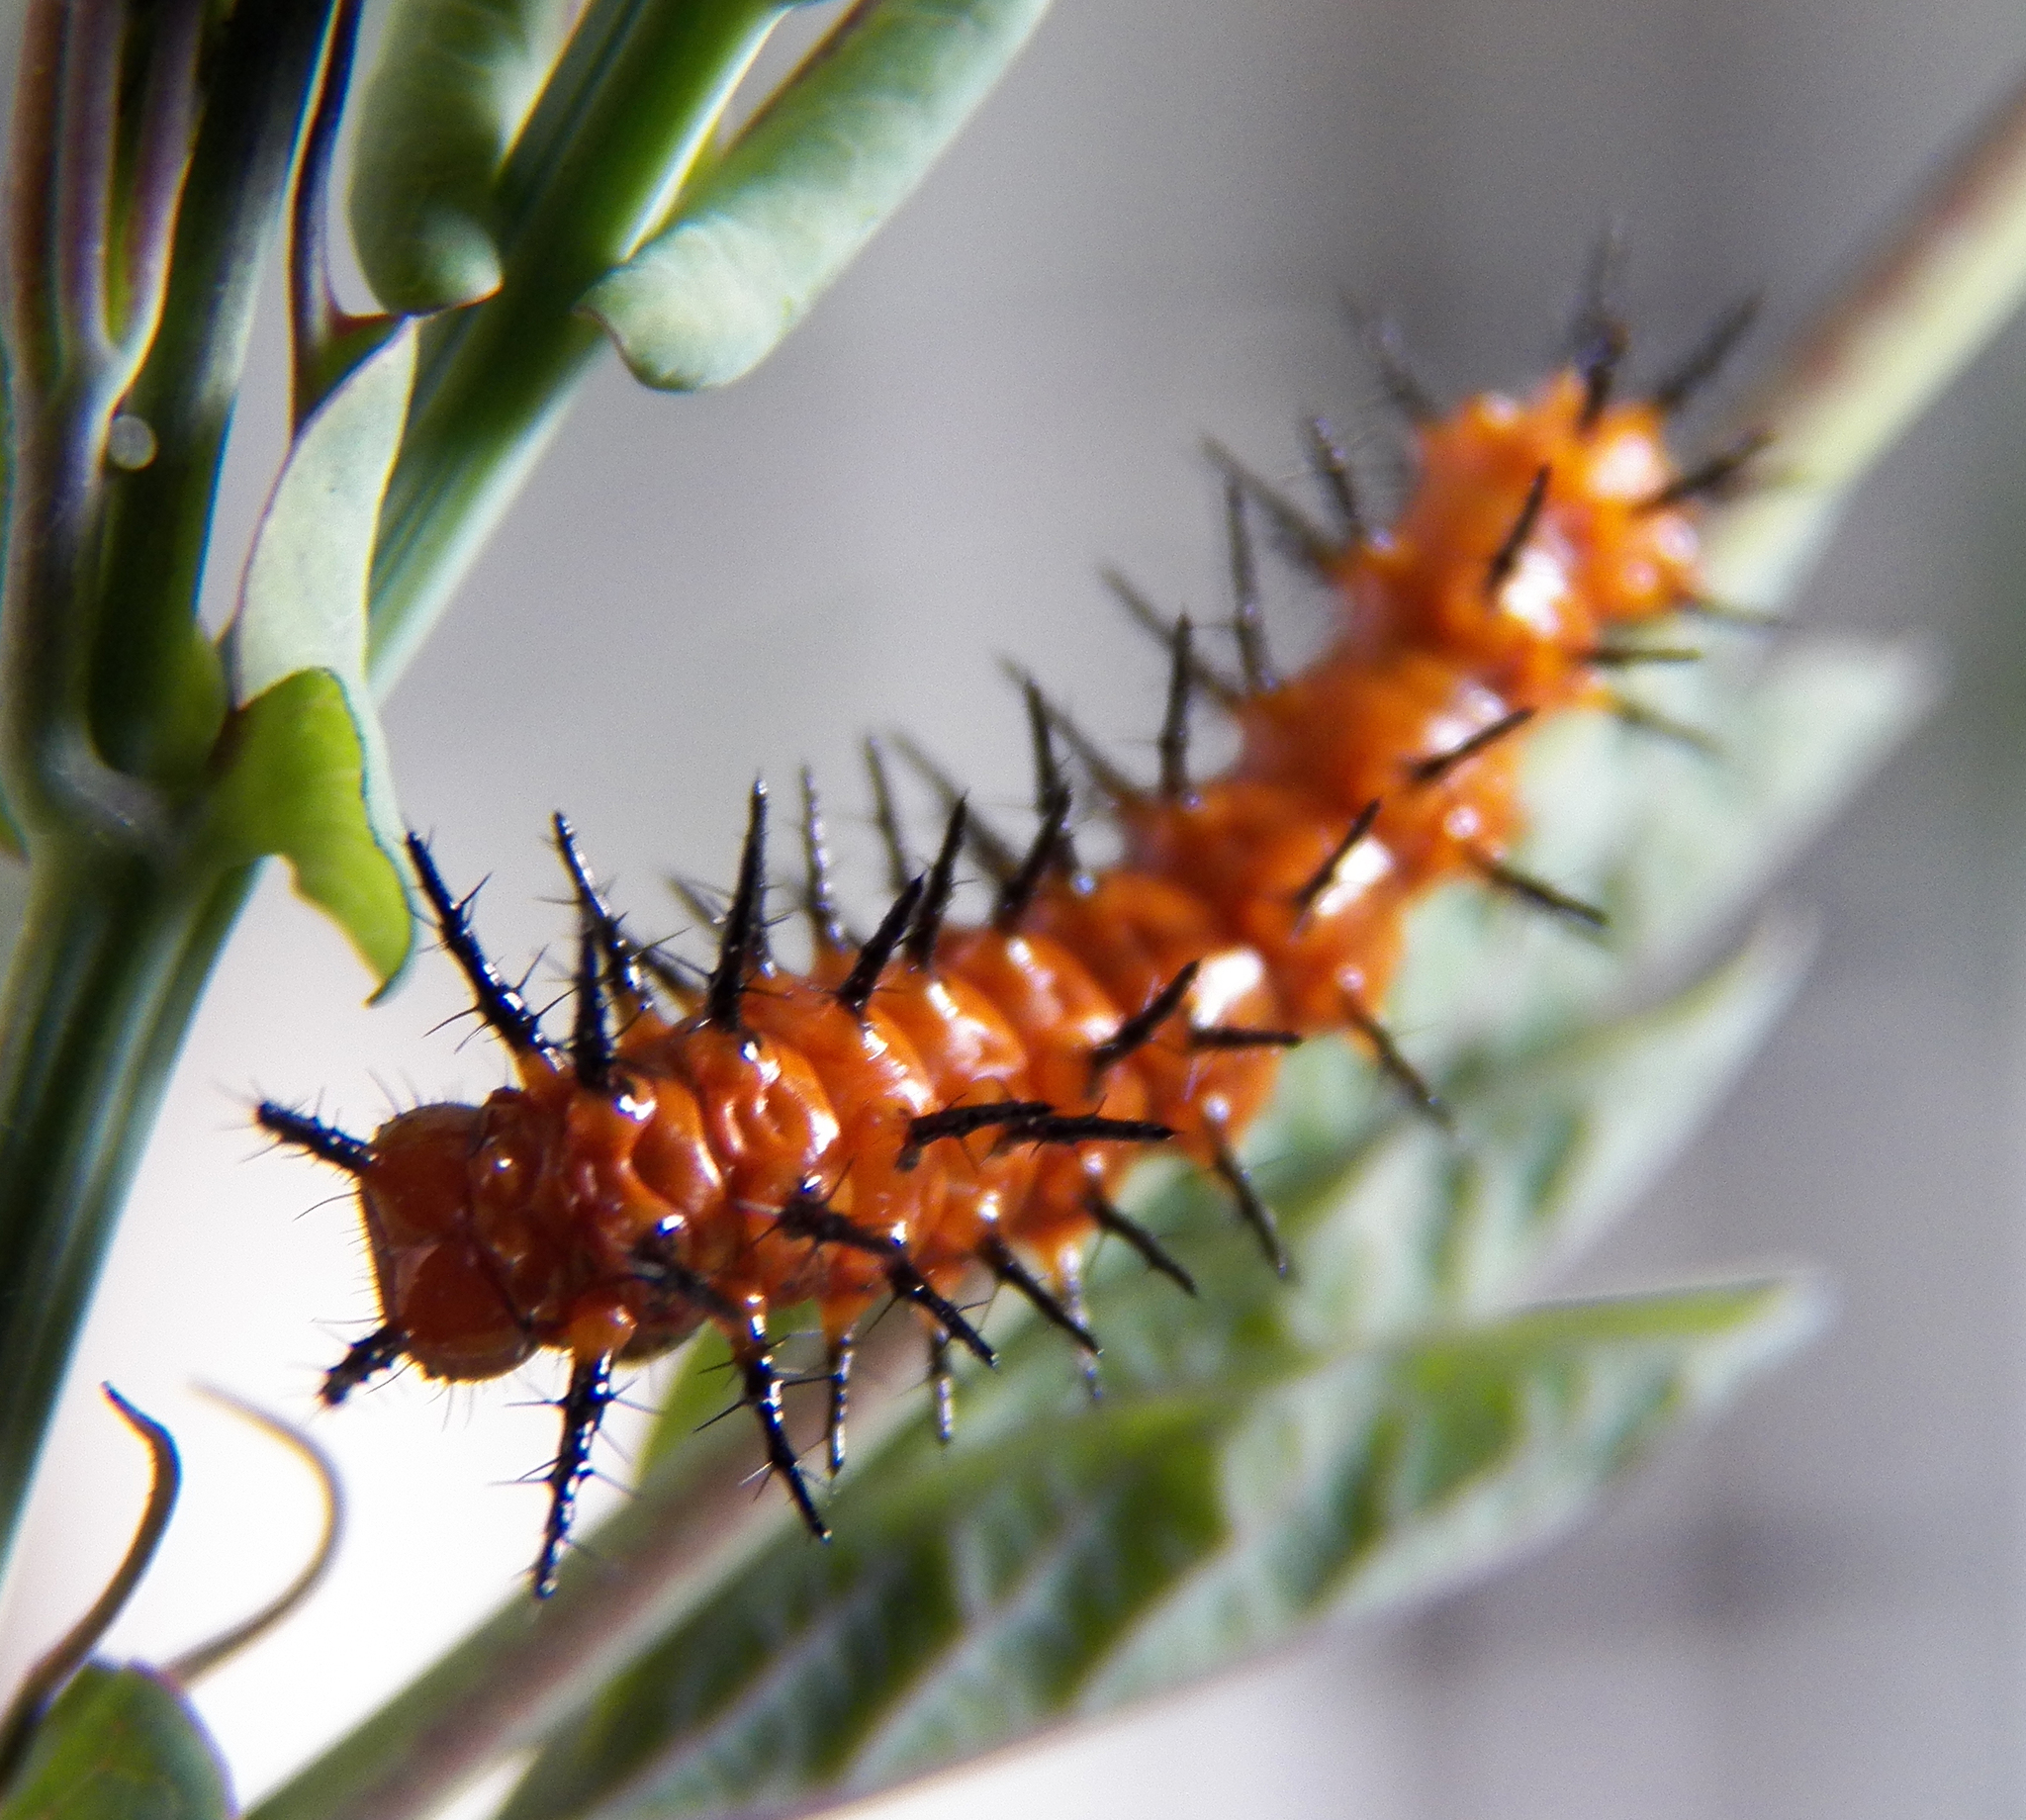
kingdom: Animalia
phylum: Arthropoda
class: Insecta
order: Lepidoptera
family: Nymphalidae
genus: Dione
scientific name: Dione vanillae
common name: Gulf fritillary
